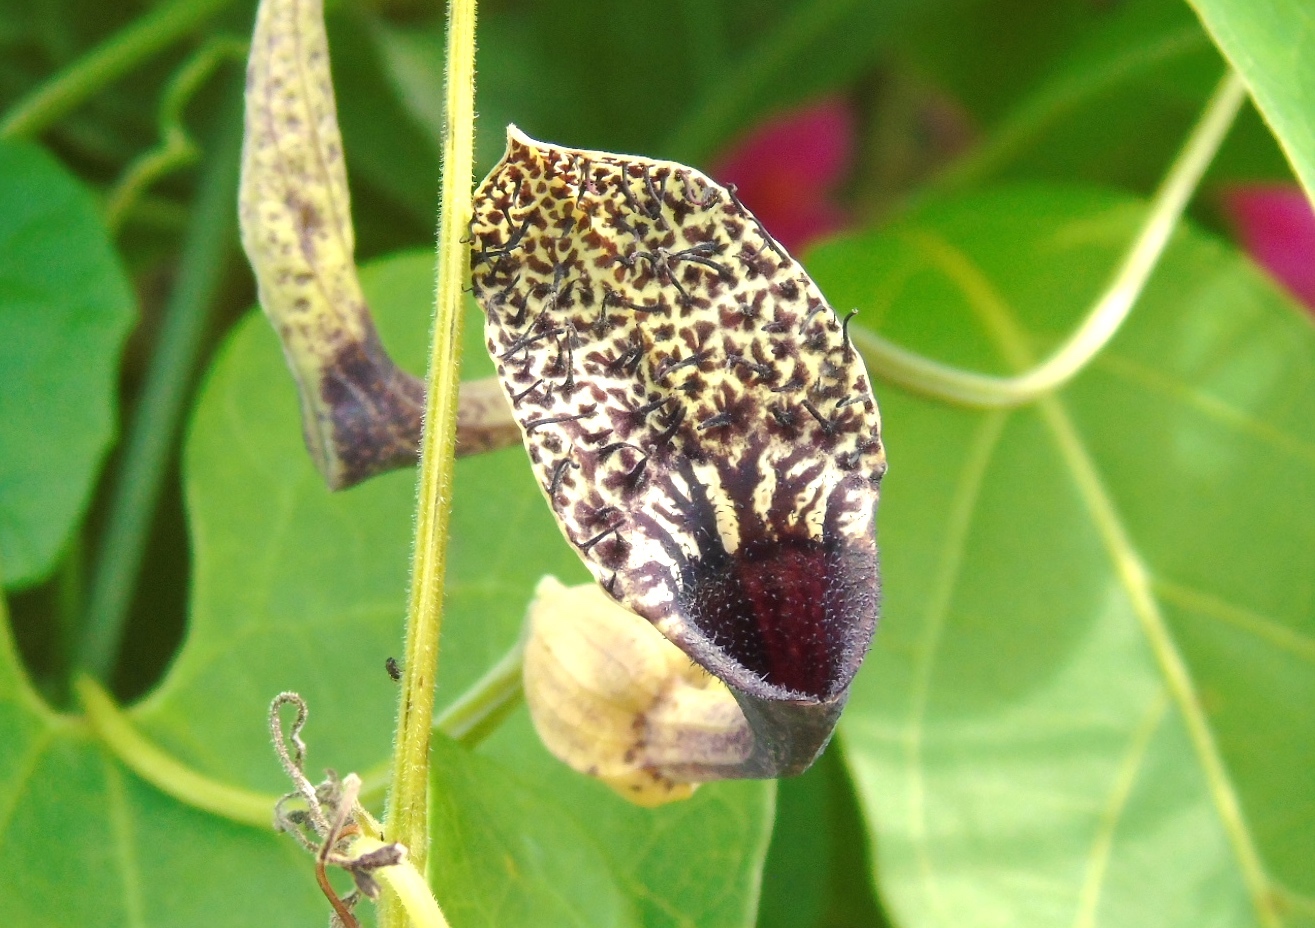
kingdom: Plantae
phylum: Tracheophyta
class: Magnoliopsida
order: Piperales
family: Aristolochiaceae
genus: Aristolochia
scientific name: Aristolochia taliscana
